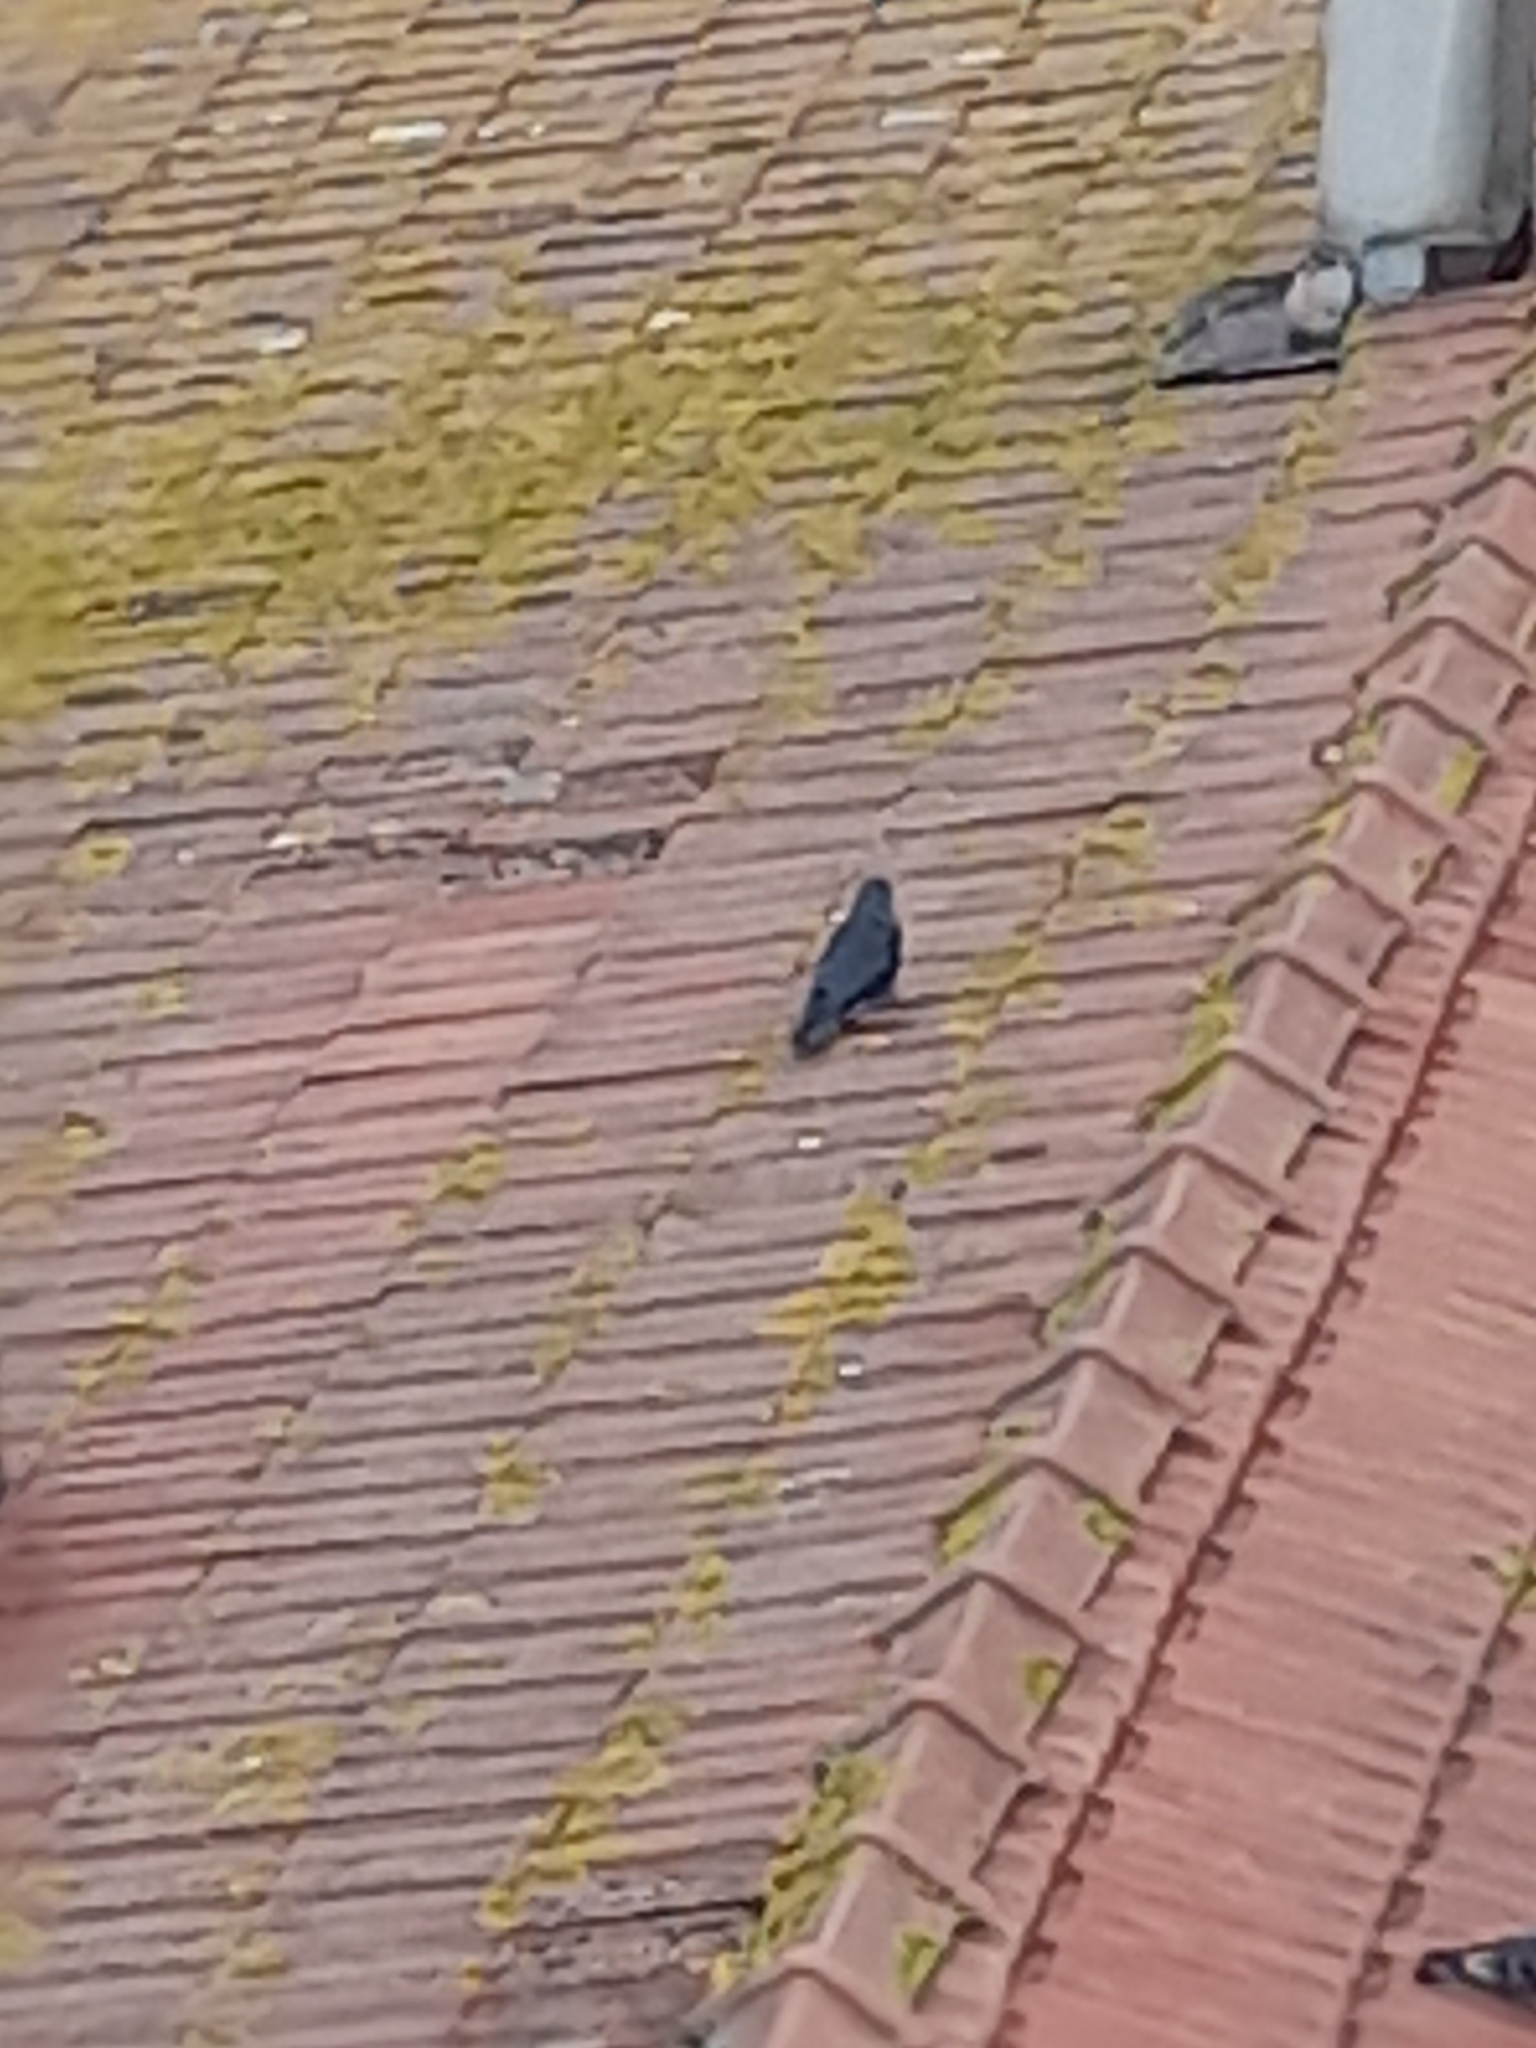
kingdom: Animalia
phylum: Chordata
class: Aves
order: Passeriformes
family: Corvidae
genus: Coloeus
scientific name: Coloeus monedula
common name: Western jackdaw
